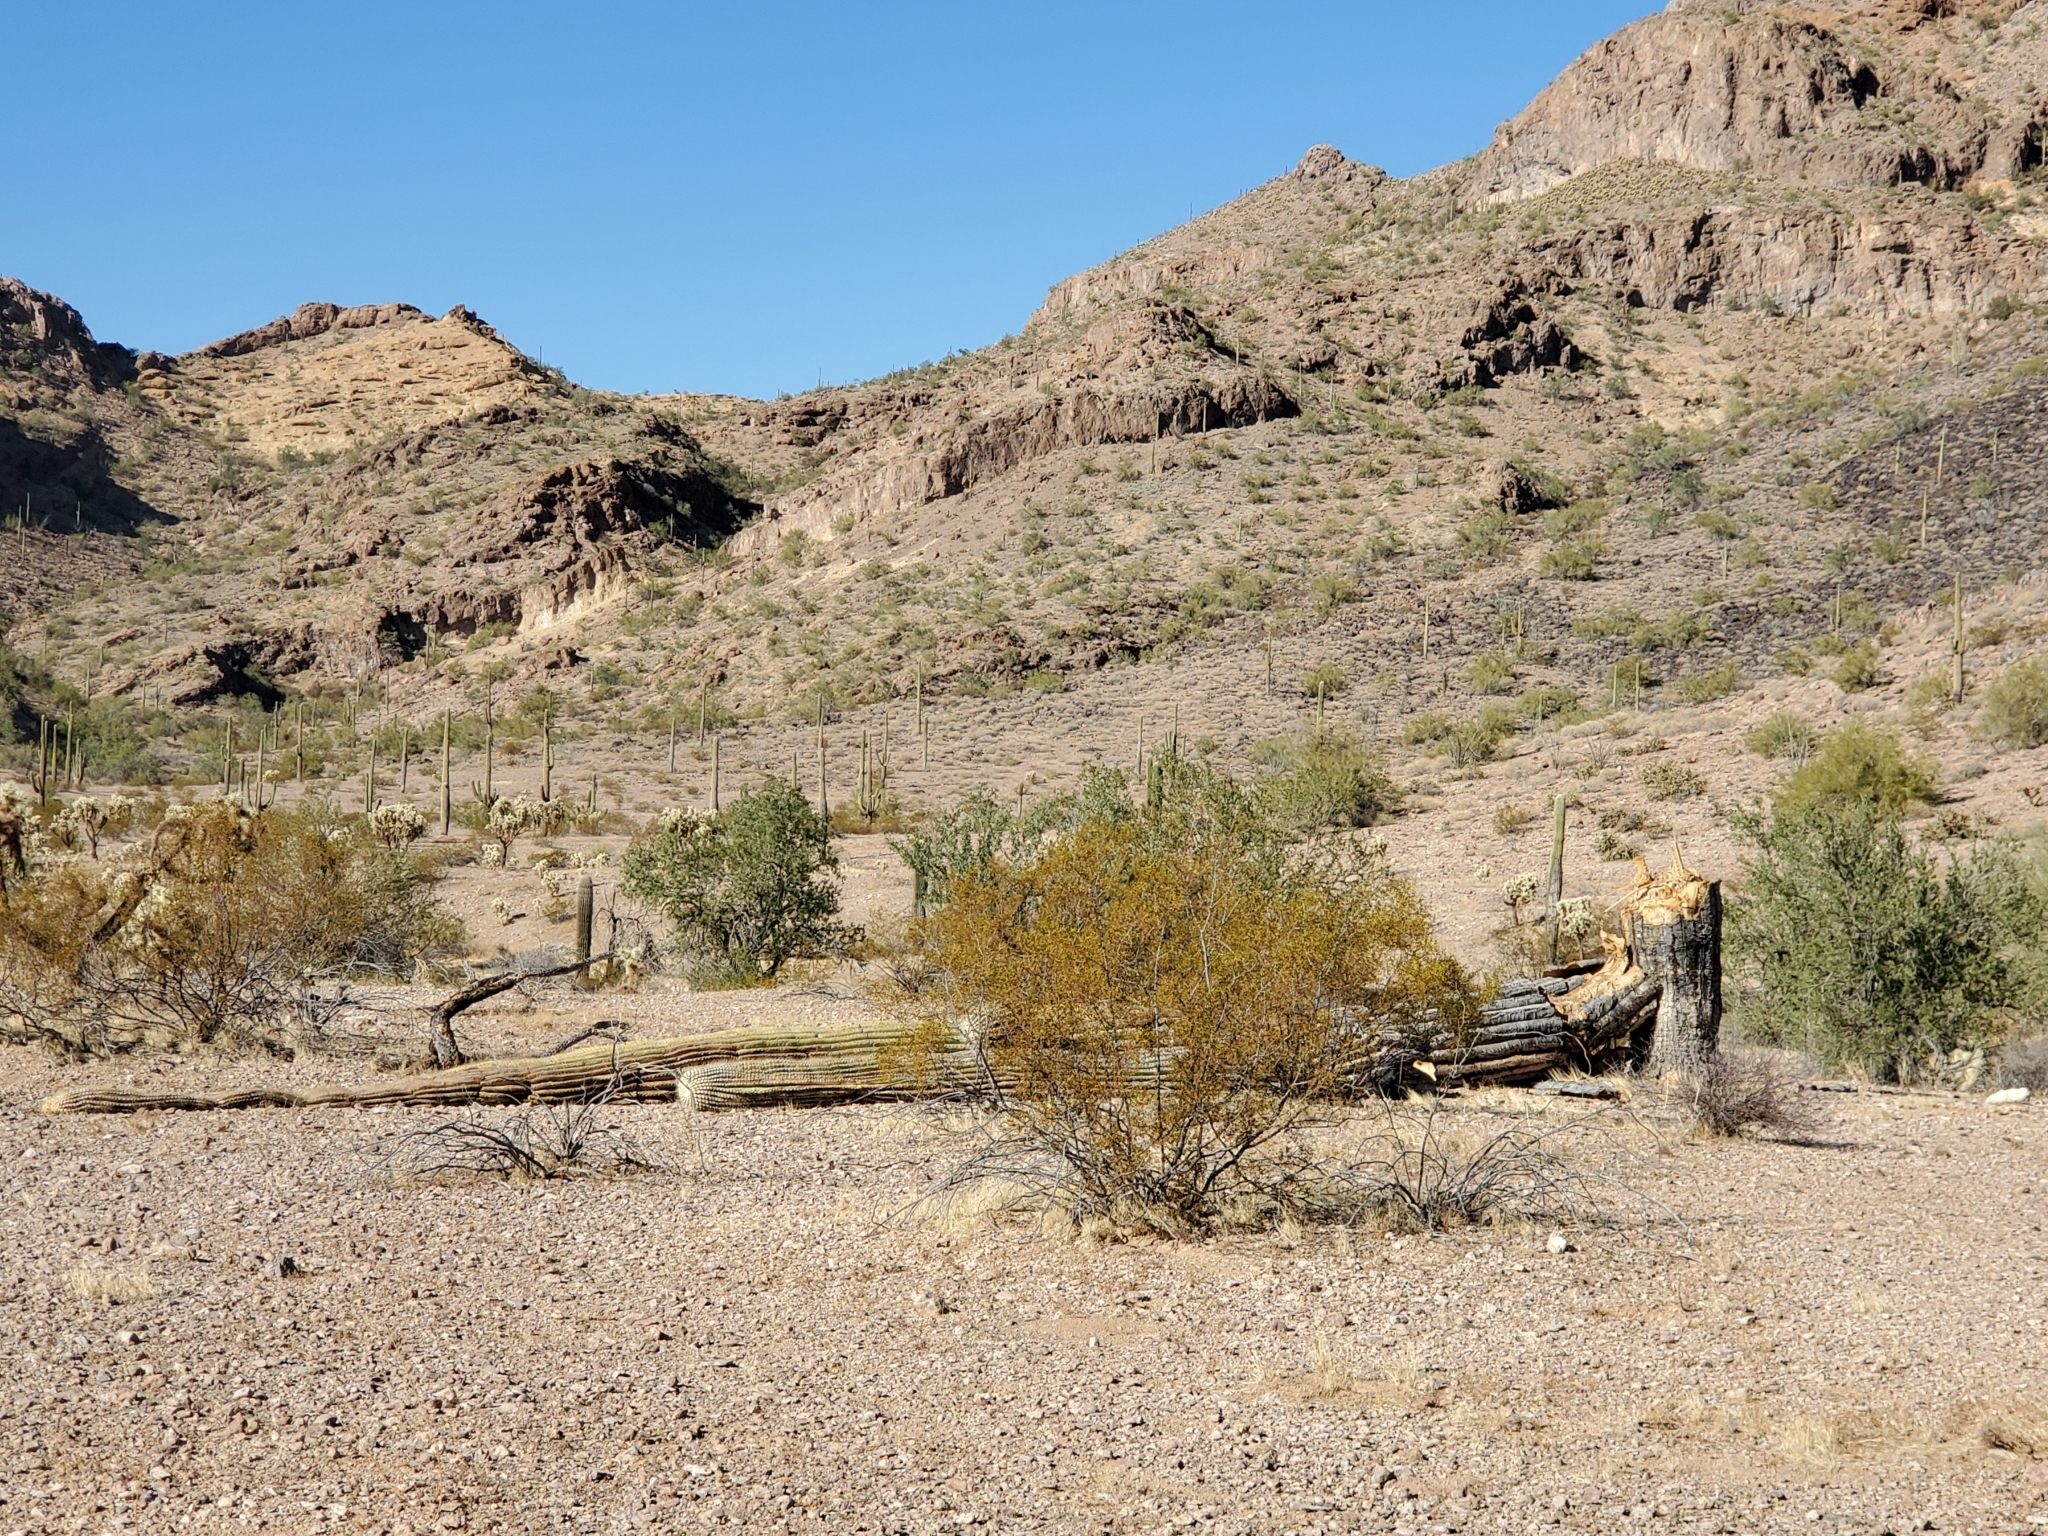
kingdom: Plantae
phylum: Tracheophyta
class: Magnoliopsida
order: Zygophyllales
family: Zygophyllaceae
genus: Larrea
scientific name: Larrea tridentata
